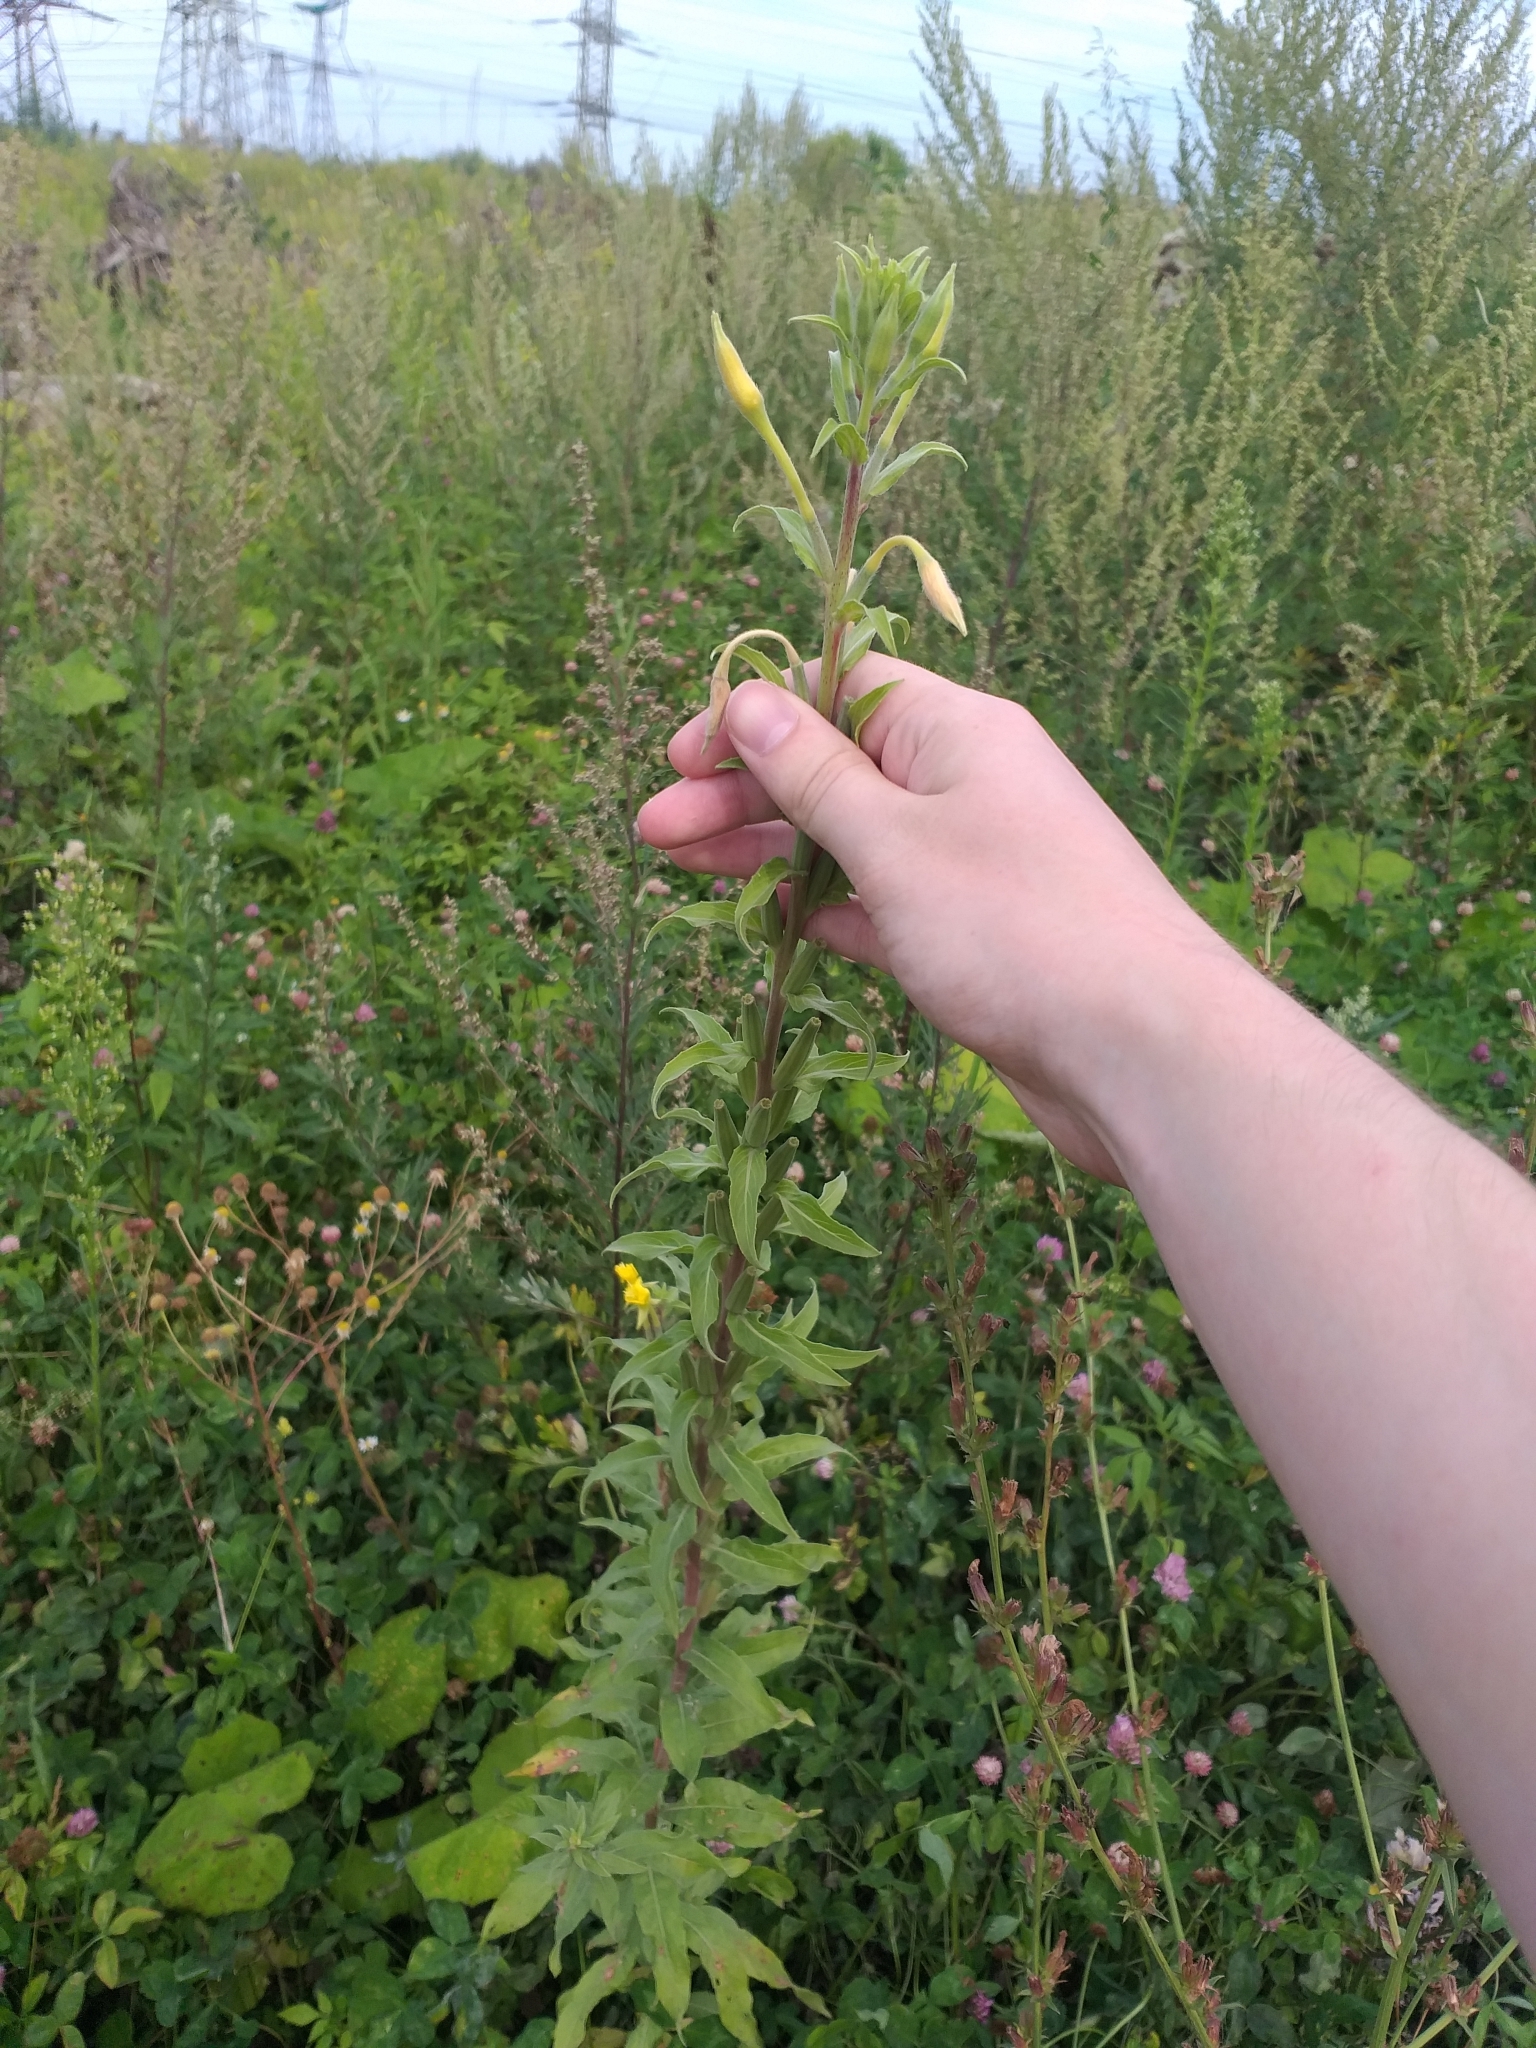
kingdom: Plantae
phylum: Tracheophyta
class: Magnoliopsida
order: Myrtales
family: Onagraceae
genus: Oenothera
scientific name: Oenothera villosa
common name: Hairy evening-primrose
